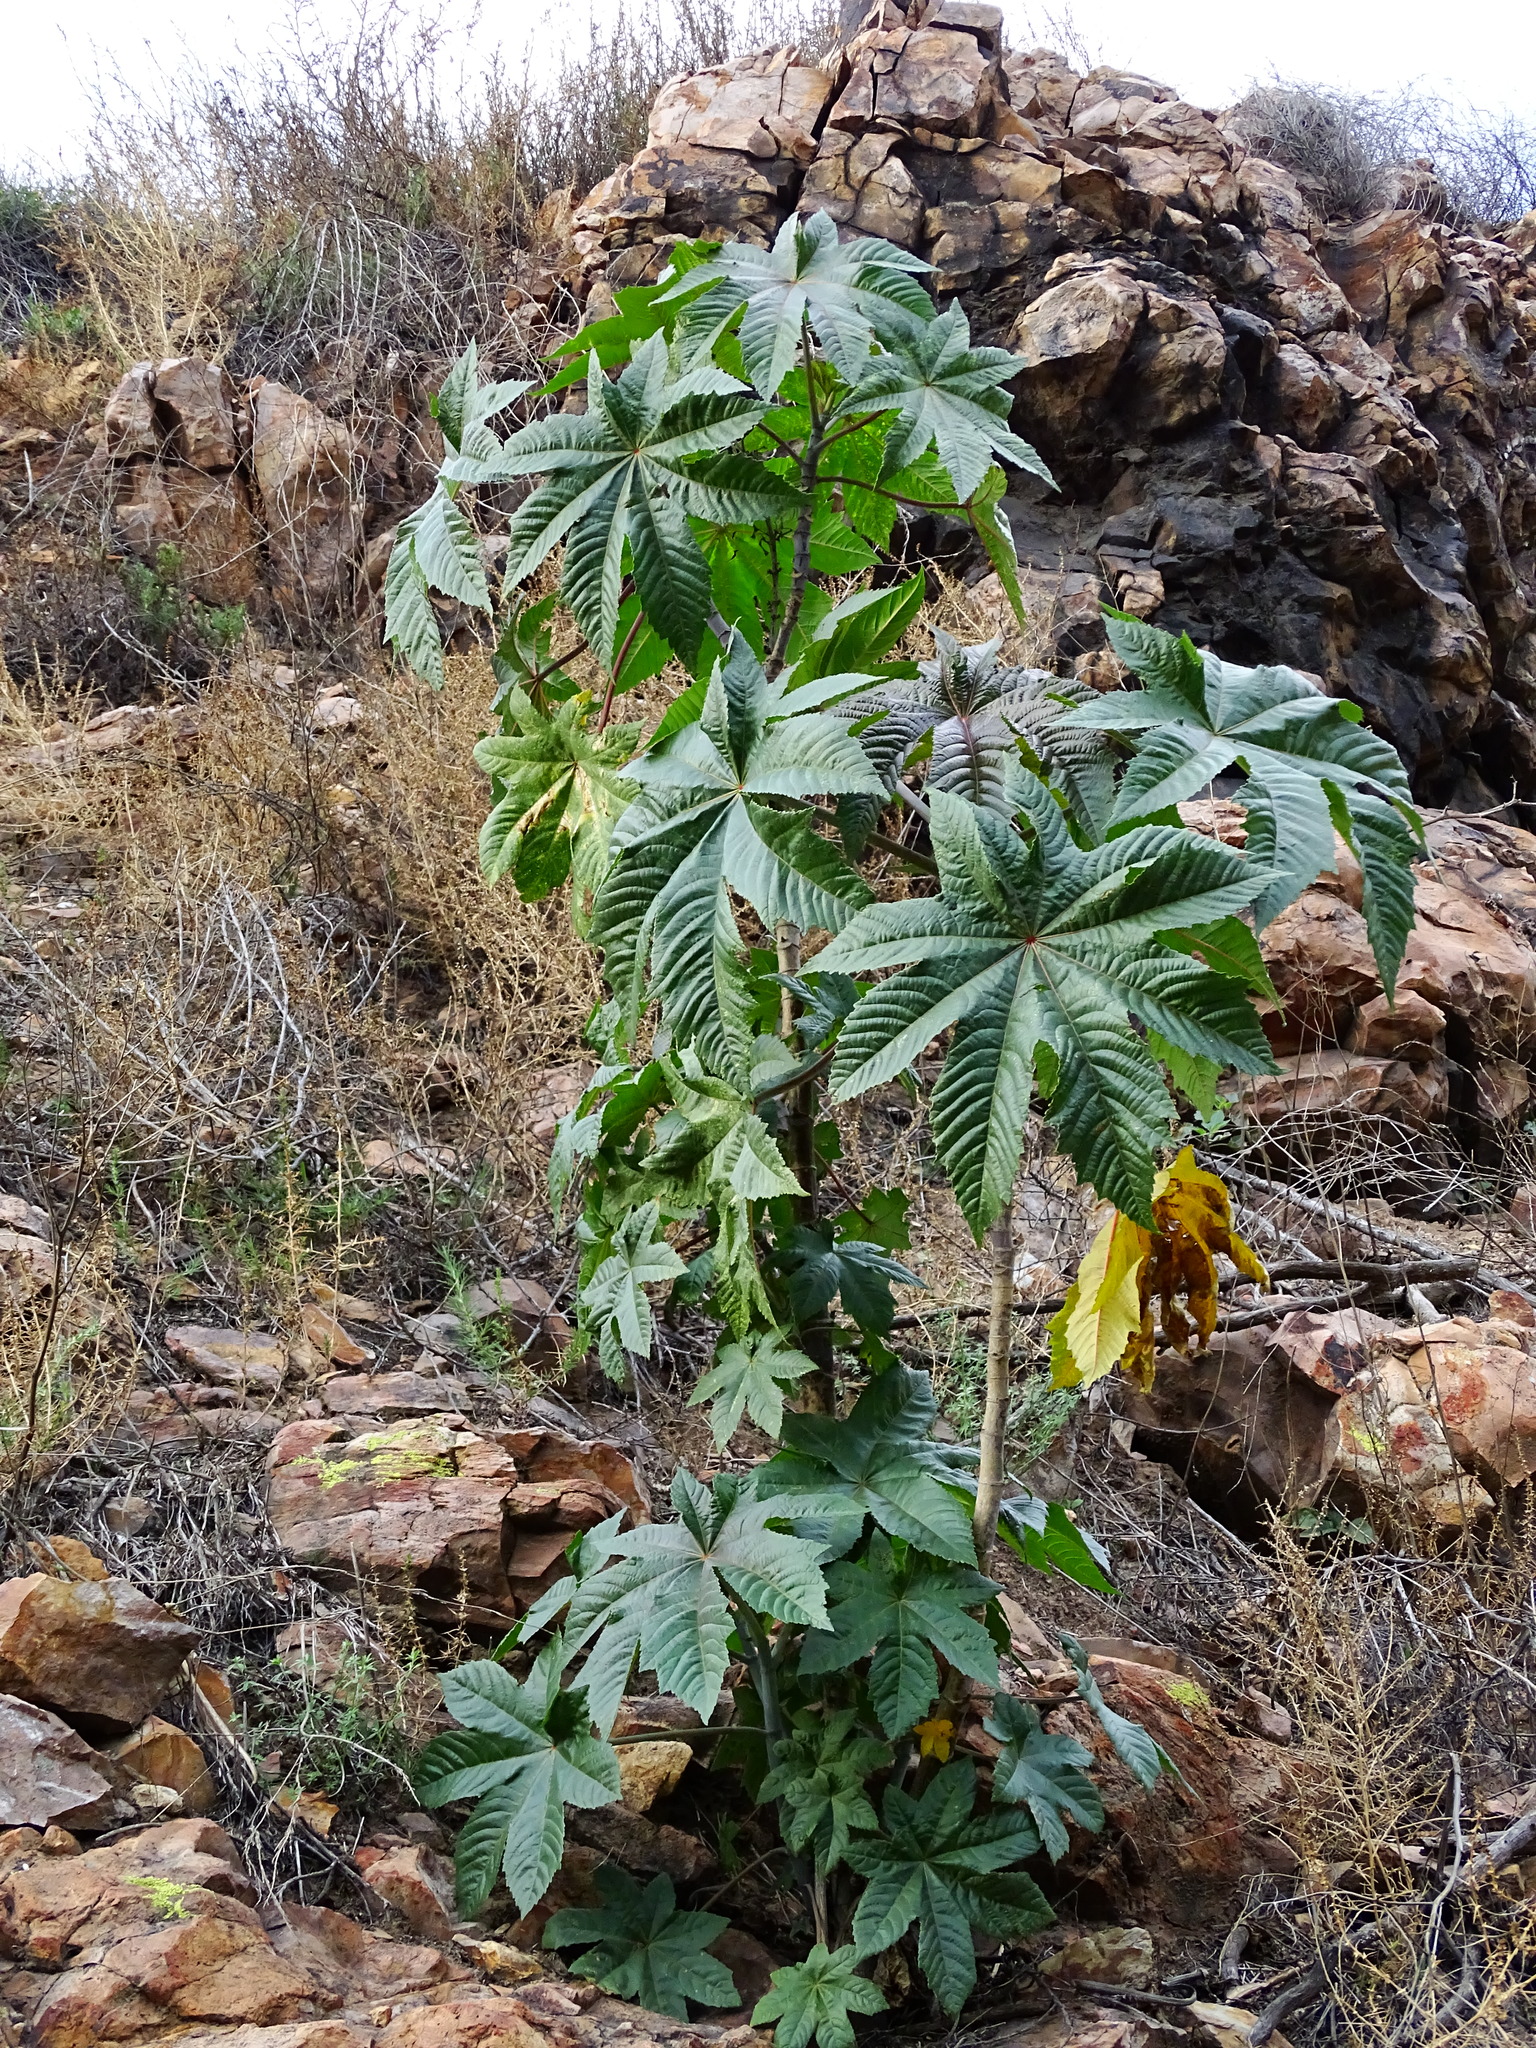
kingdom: Plantae
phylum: Tracheophyta
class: Magnoliopsida
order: Malpighiales
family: Euphorbiaceae
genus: Ricinus
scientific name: Ricinus communis
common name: Castor-oil-plant
